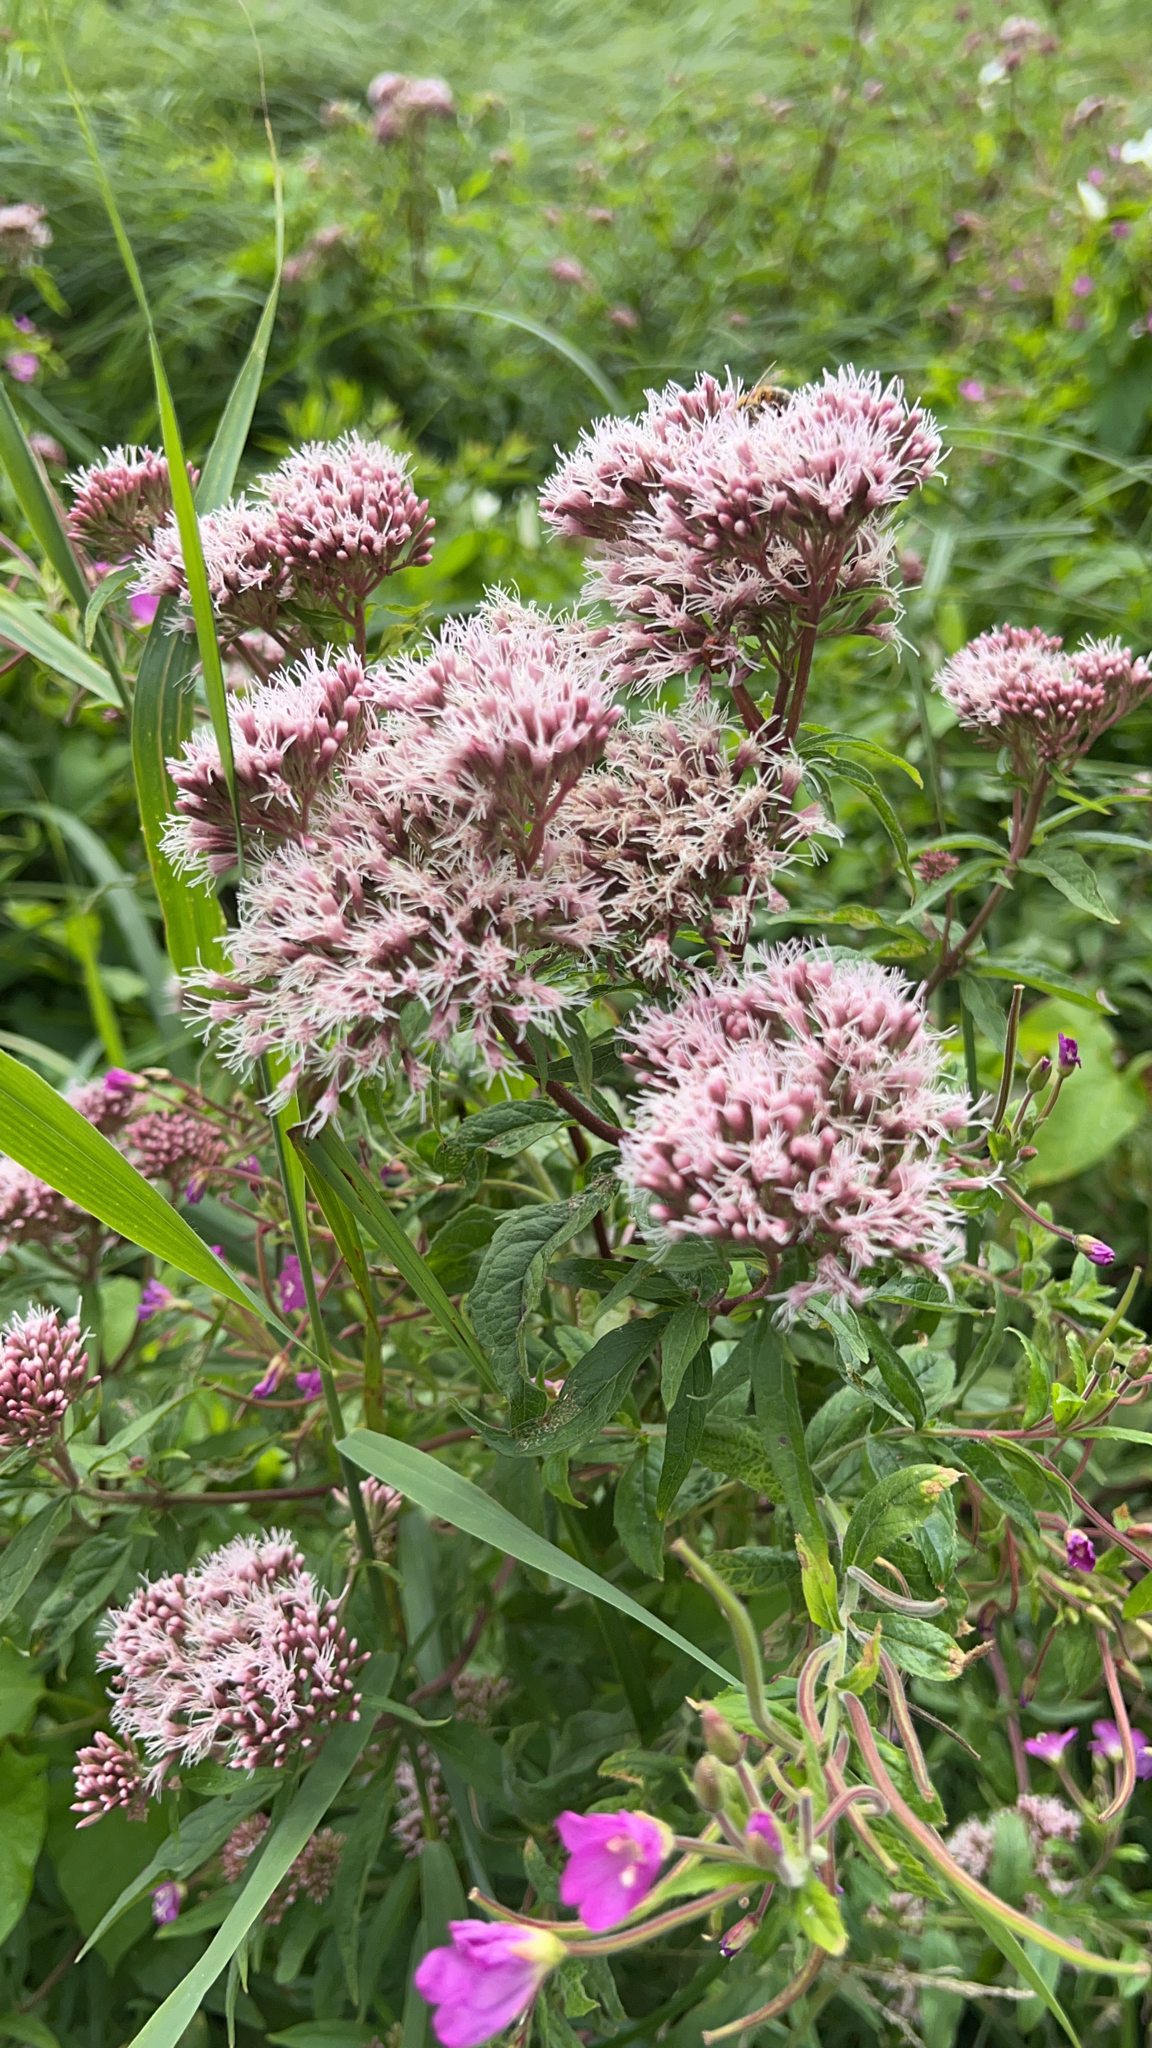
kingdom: Plantae
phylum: Tracheophyta
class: Magnoliopsida
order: Asterales
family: Asteraceae
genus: Eupatorium
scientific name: Eupatorium cannabinum
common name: Hemp-agrimony
